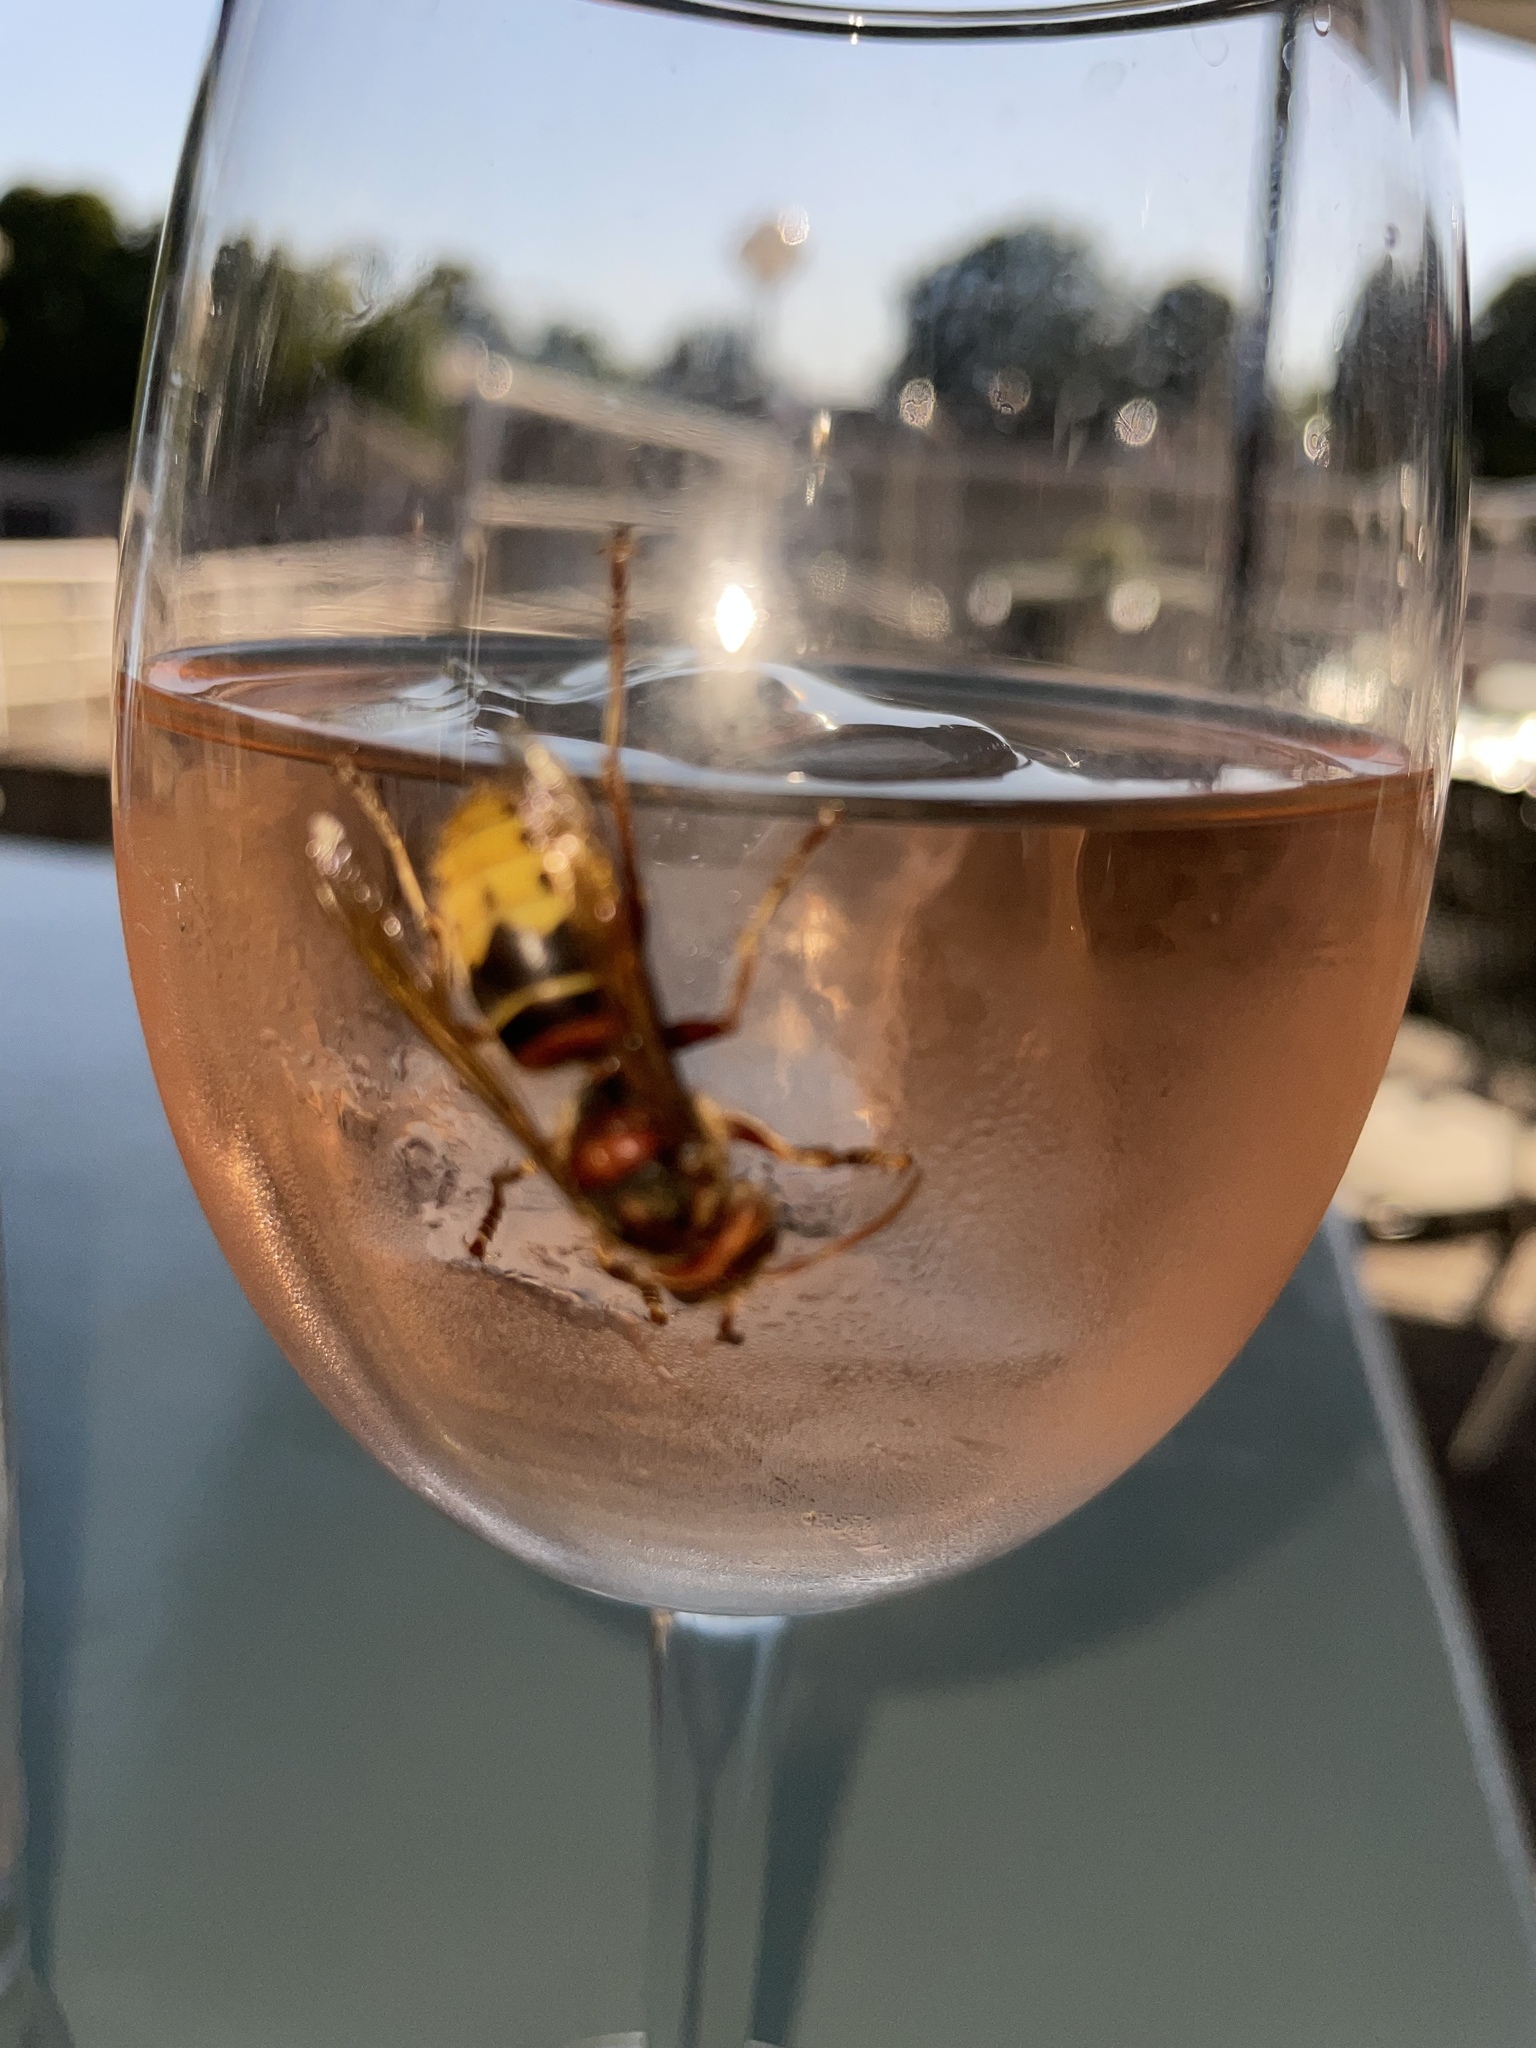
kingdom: Animalia
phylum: Arthropoda
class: Insecta
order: Hymenoptera
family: Vespidae
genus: Vespa
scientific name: Vespa crabro
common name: Hornet
